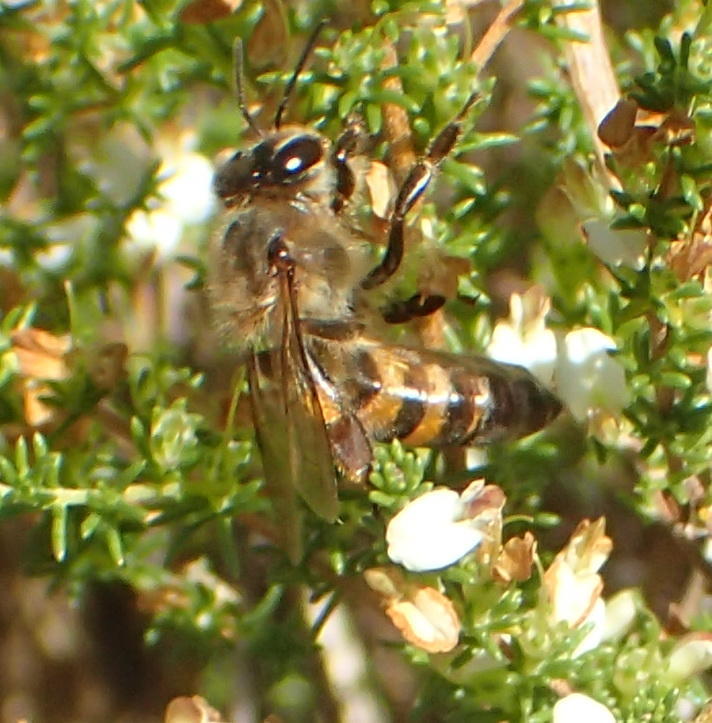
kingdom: Animalia
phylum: Arthropoda
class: Insecta
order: Hymenoptera
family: Apidae
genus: Apis
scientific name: Apis mellifera
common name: Honey bee
